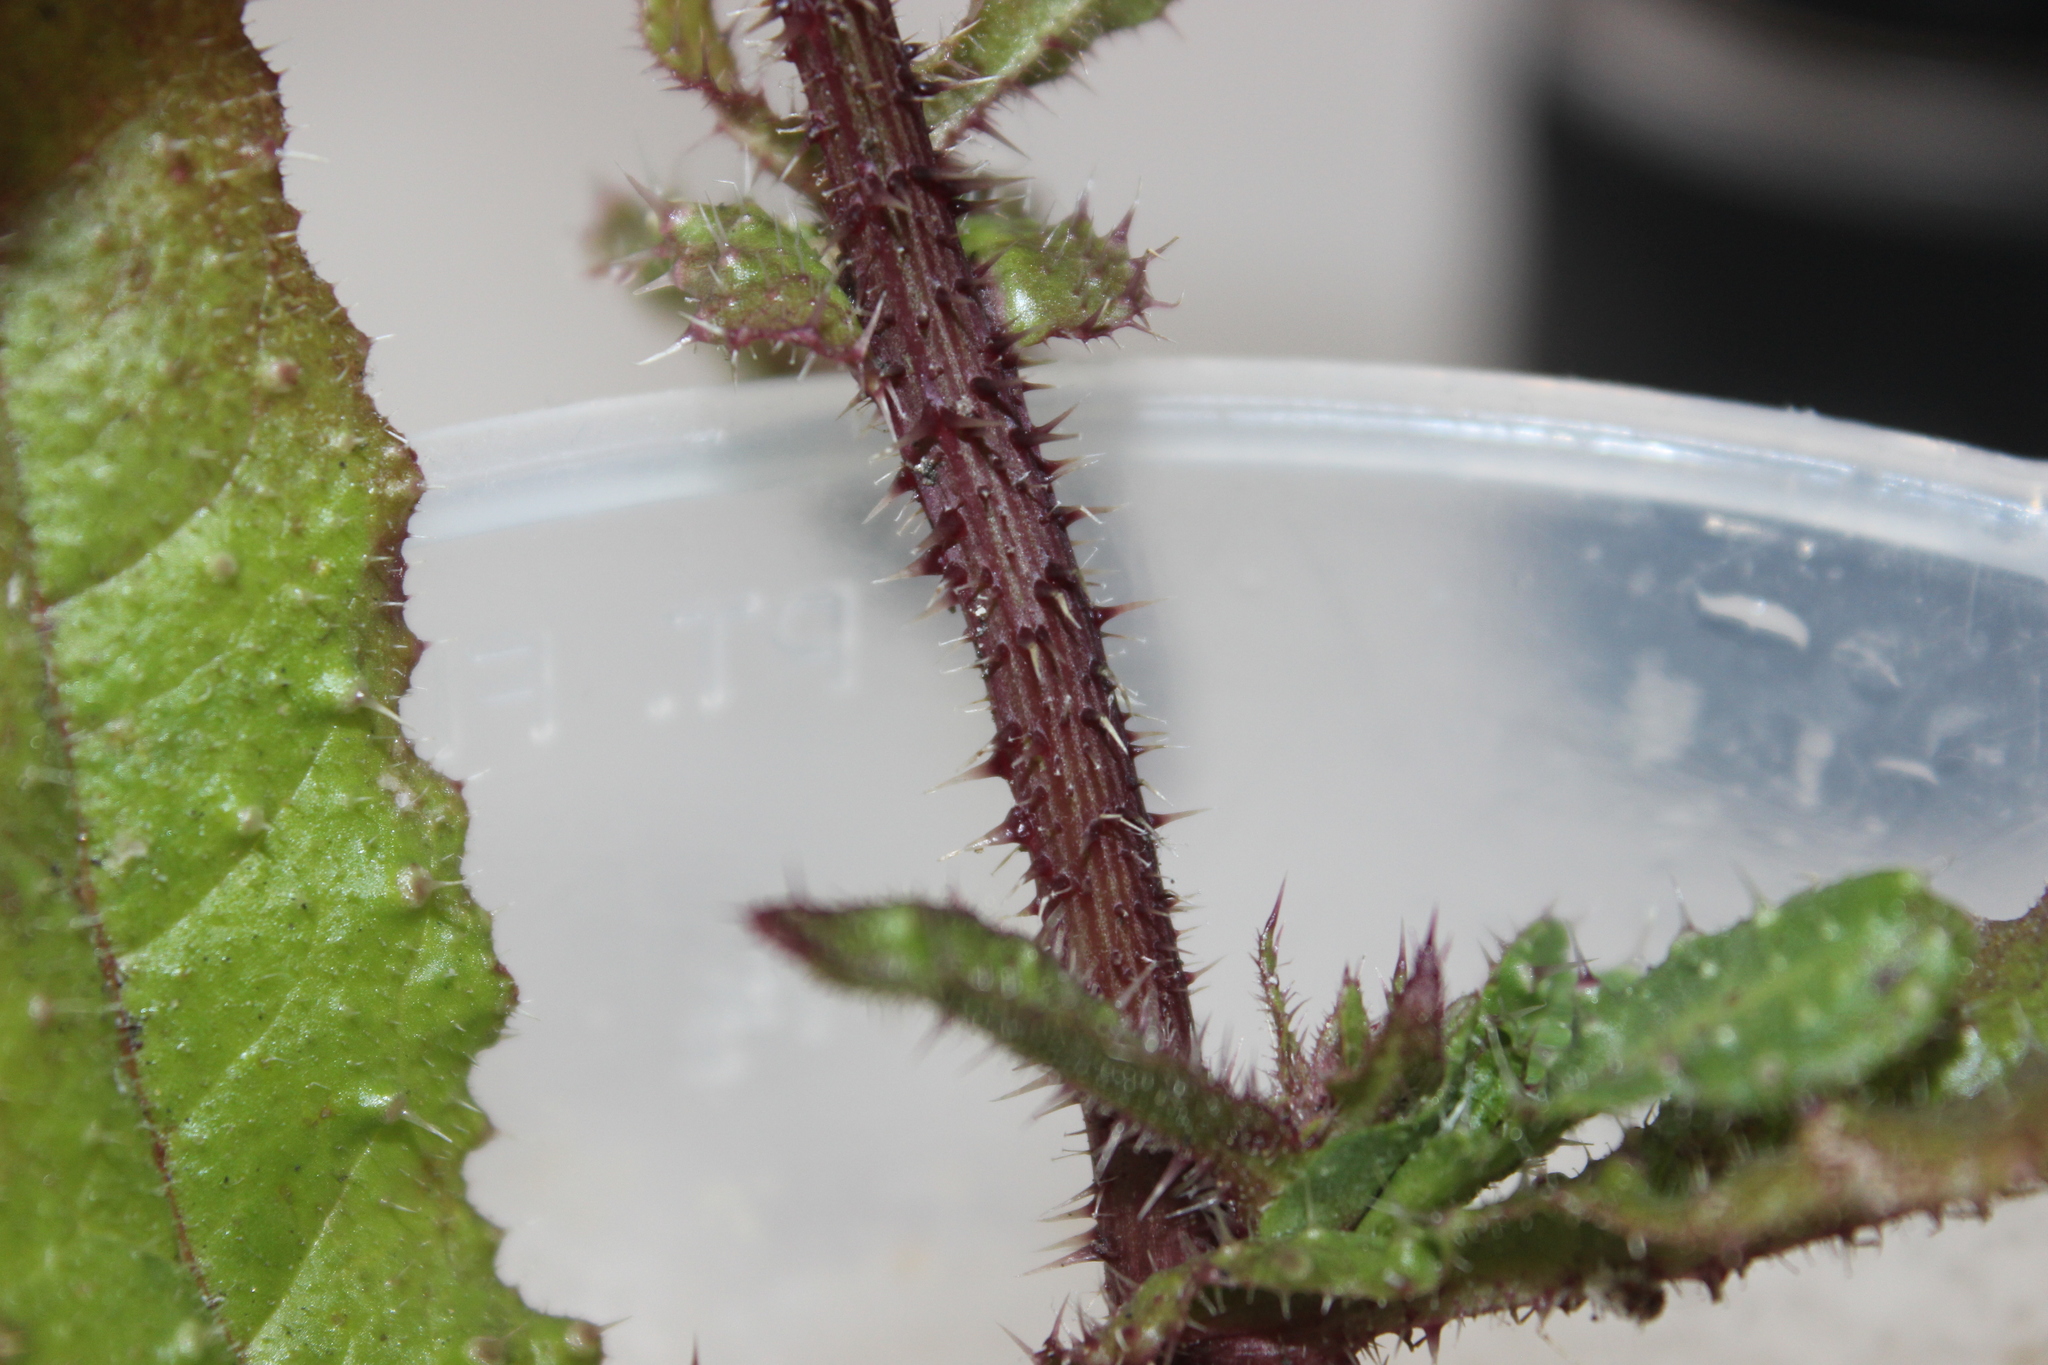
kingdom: Plantae
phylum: Tracheophyta
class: Magnoliopsida
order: Asterales
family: Asteraceae
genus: Helminthotheca
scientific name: Helminthotheca echioides
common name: Ox-tongue
